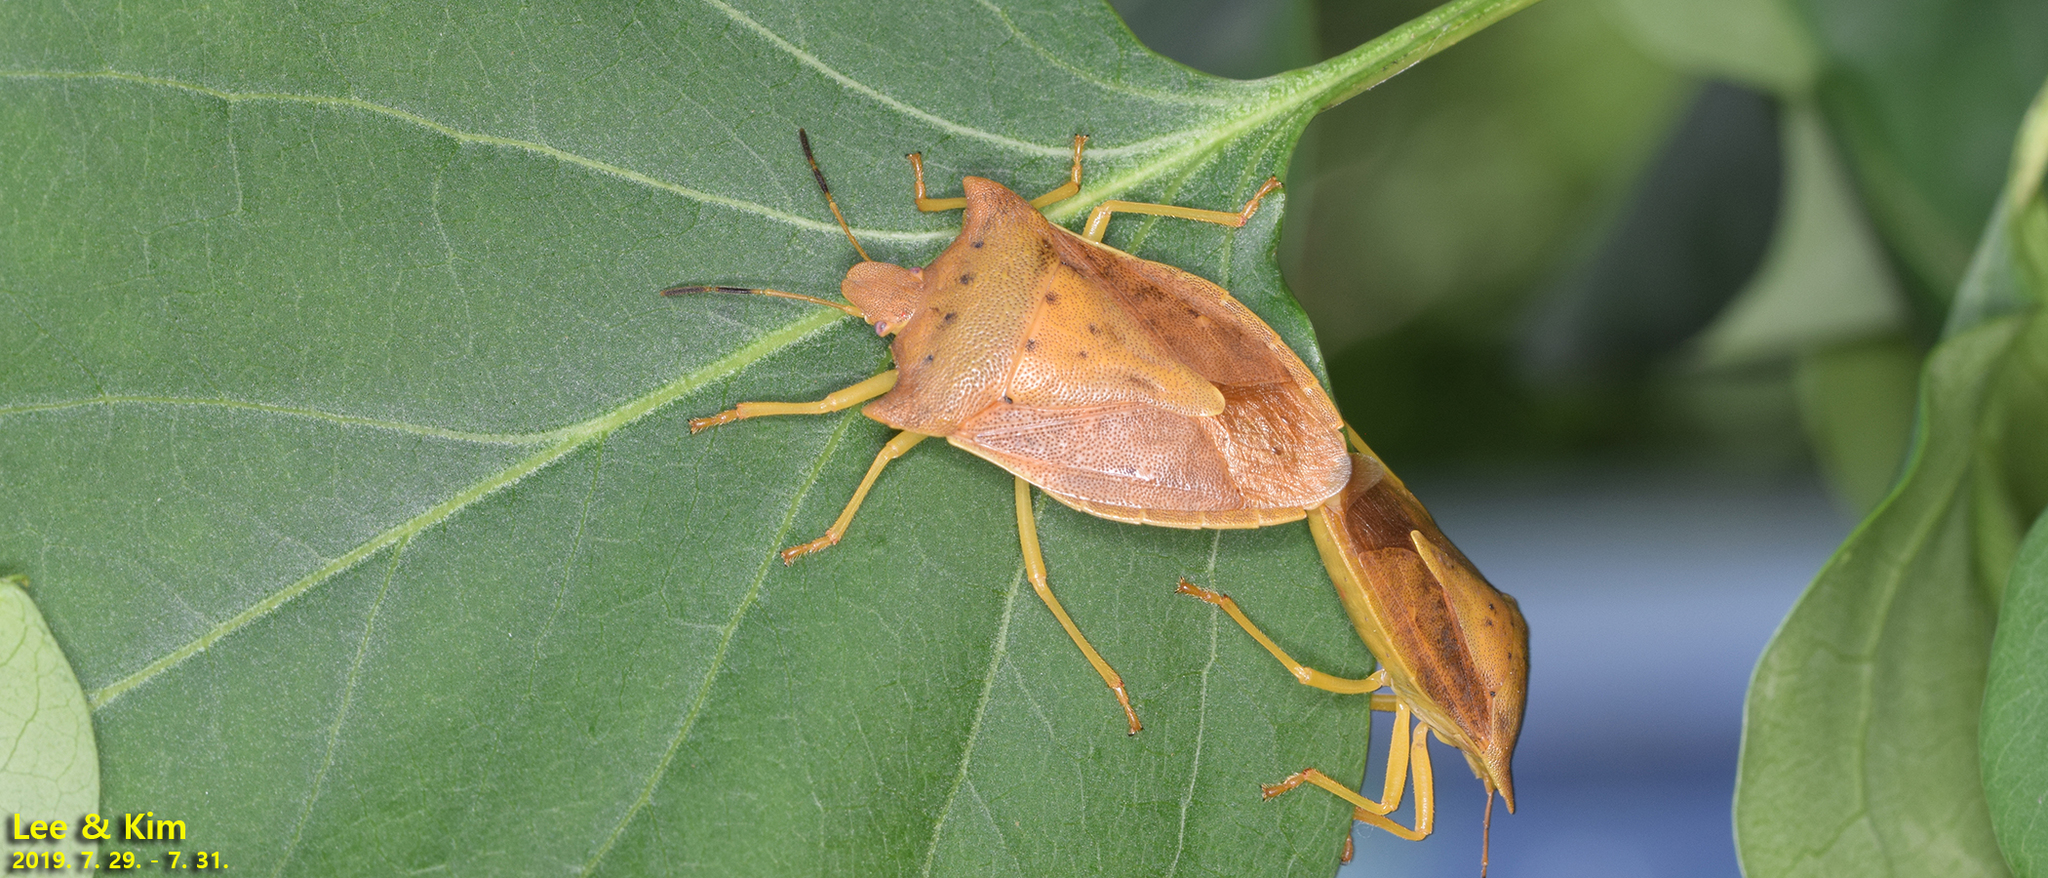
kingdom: Animalia
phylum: Arthropoda
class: Insecta
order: Hemiptera
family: Pentatomidae
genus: Lelia
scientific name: Lelia decempunctata
